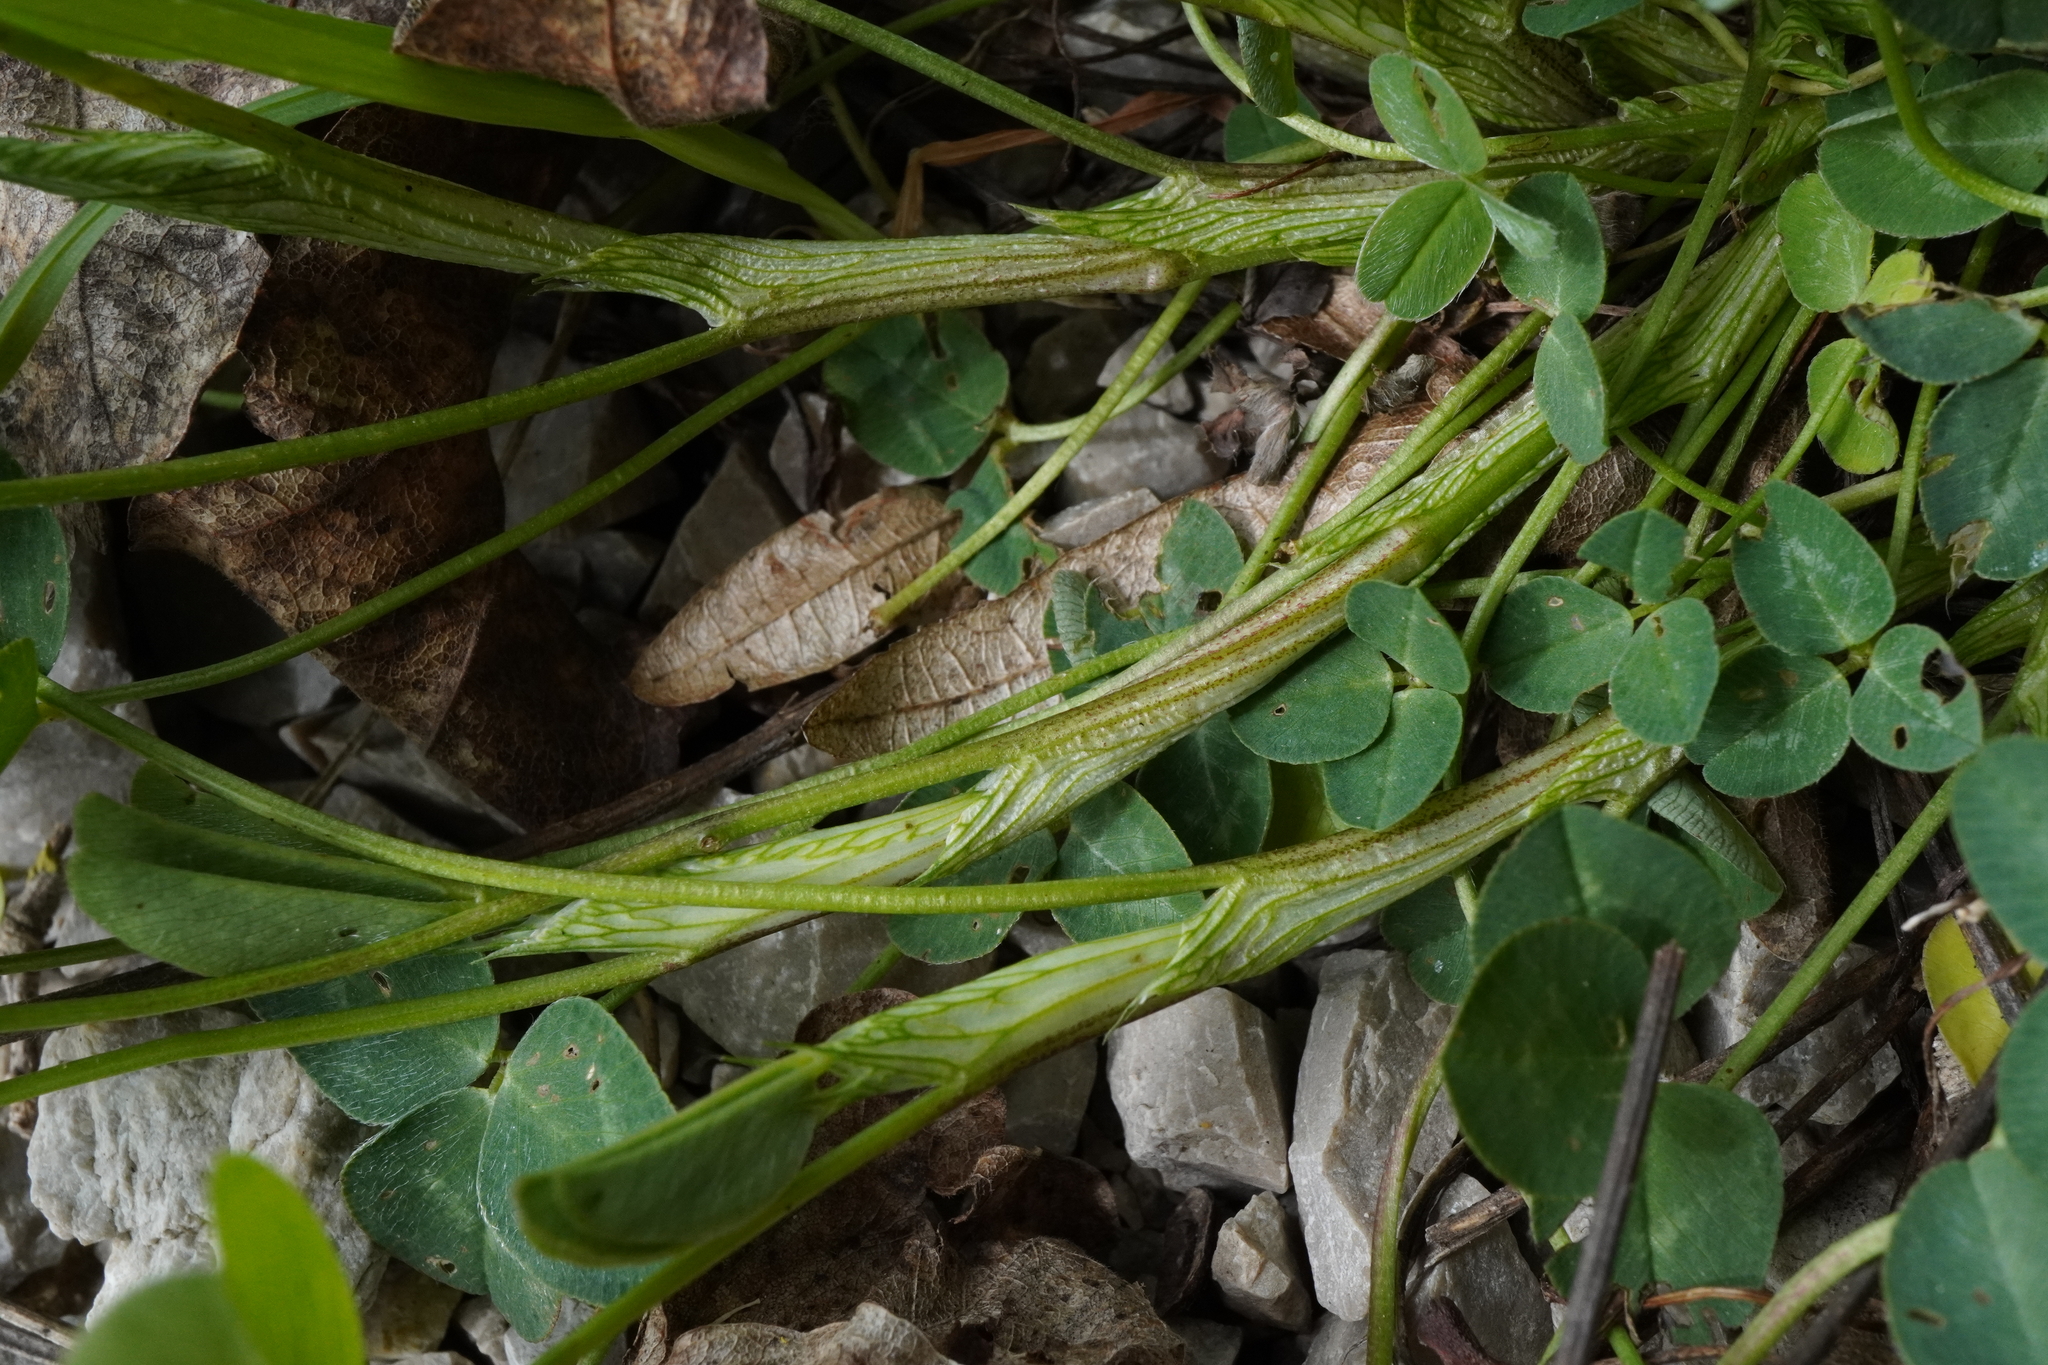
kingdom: Plantae
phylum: Tracheophyta
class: Magnoliopsida
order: Fabales
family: Fabaceae
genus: Trifolium
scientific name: Trifolium pratense
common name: Red clover
